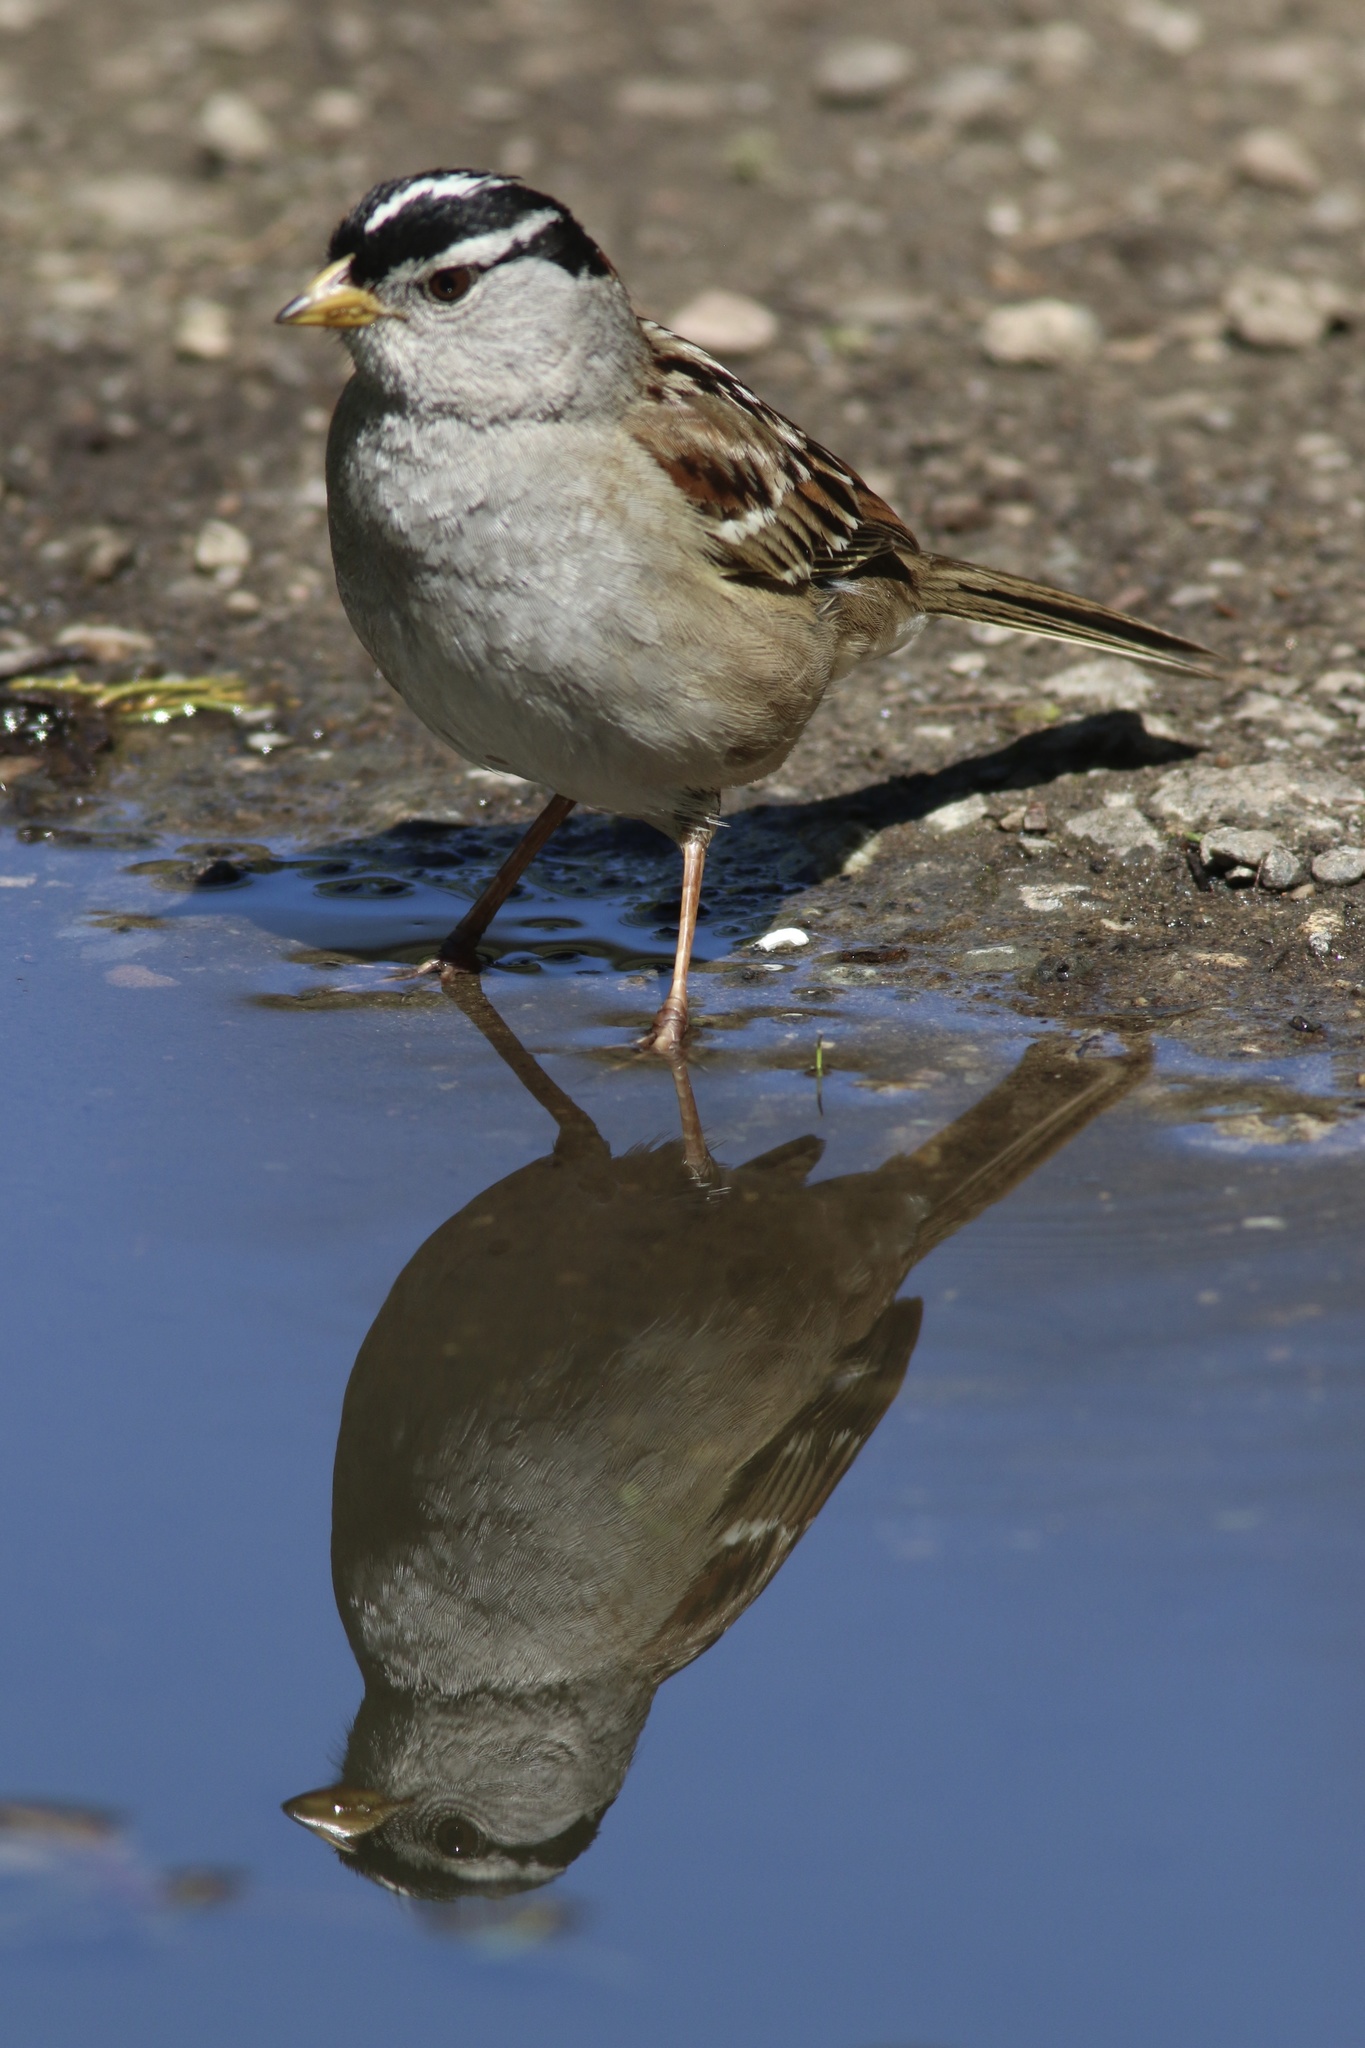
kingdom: Animalia
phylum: Chordata
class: Aves
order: Passeriformes
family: Passerellidae
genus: Zonotrichia
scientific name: Zonotrichia leucophrys
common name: White-crowned sparrow
